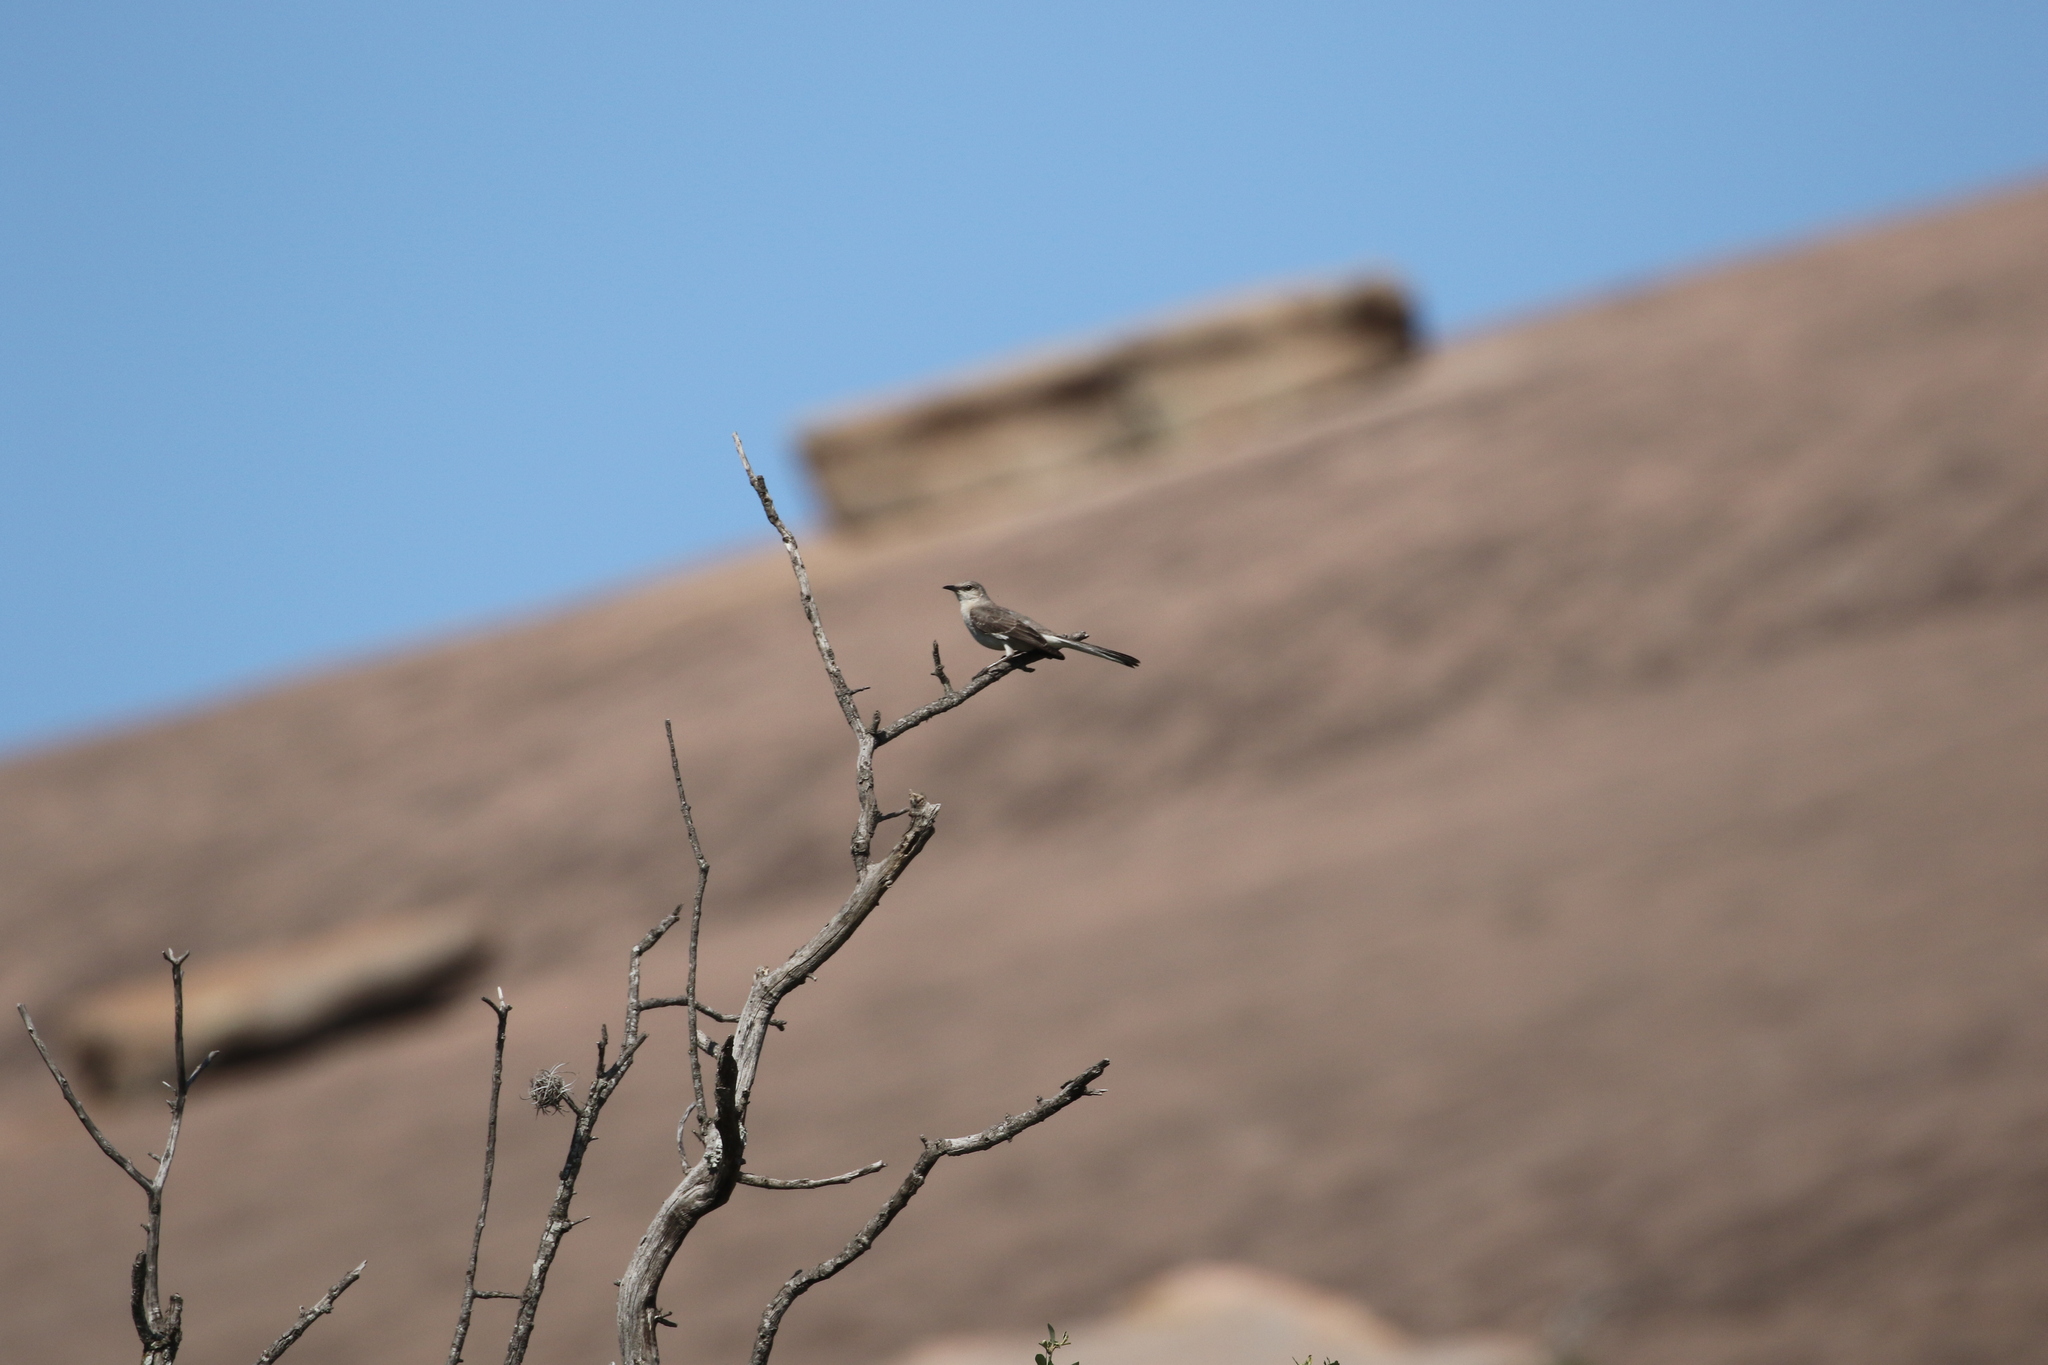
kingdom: Animalia
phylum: Chordata
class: Aves
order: Passeriformes
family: Mimidae
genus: Mimus
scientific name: Mimus polyglottos
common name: Northern mockingbird
